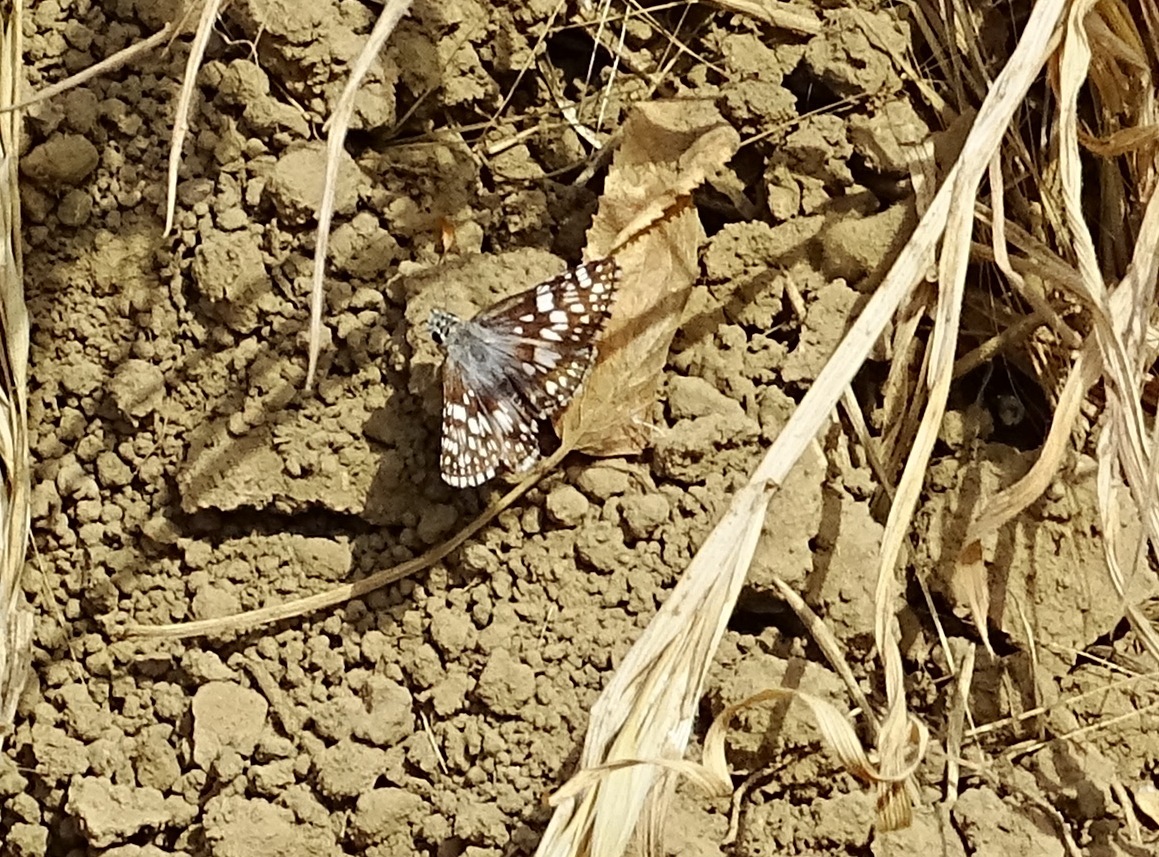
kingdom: Animalia
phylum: Arthropoda
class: Insecta
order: Lepidoptera
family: Hesperiidae
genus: Burnsius
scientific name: Burnsius albezens
